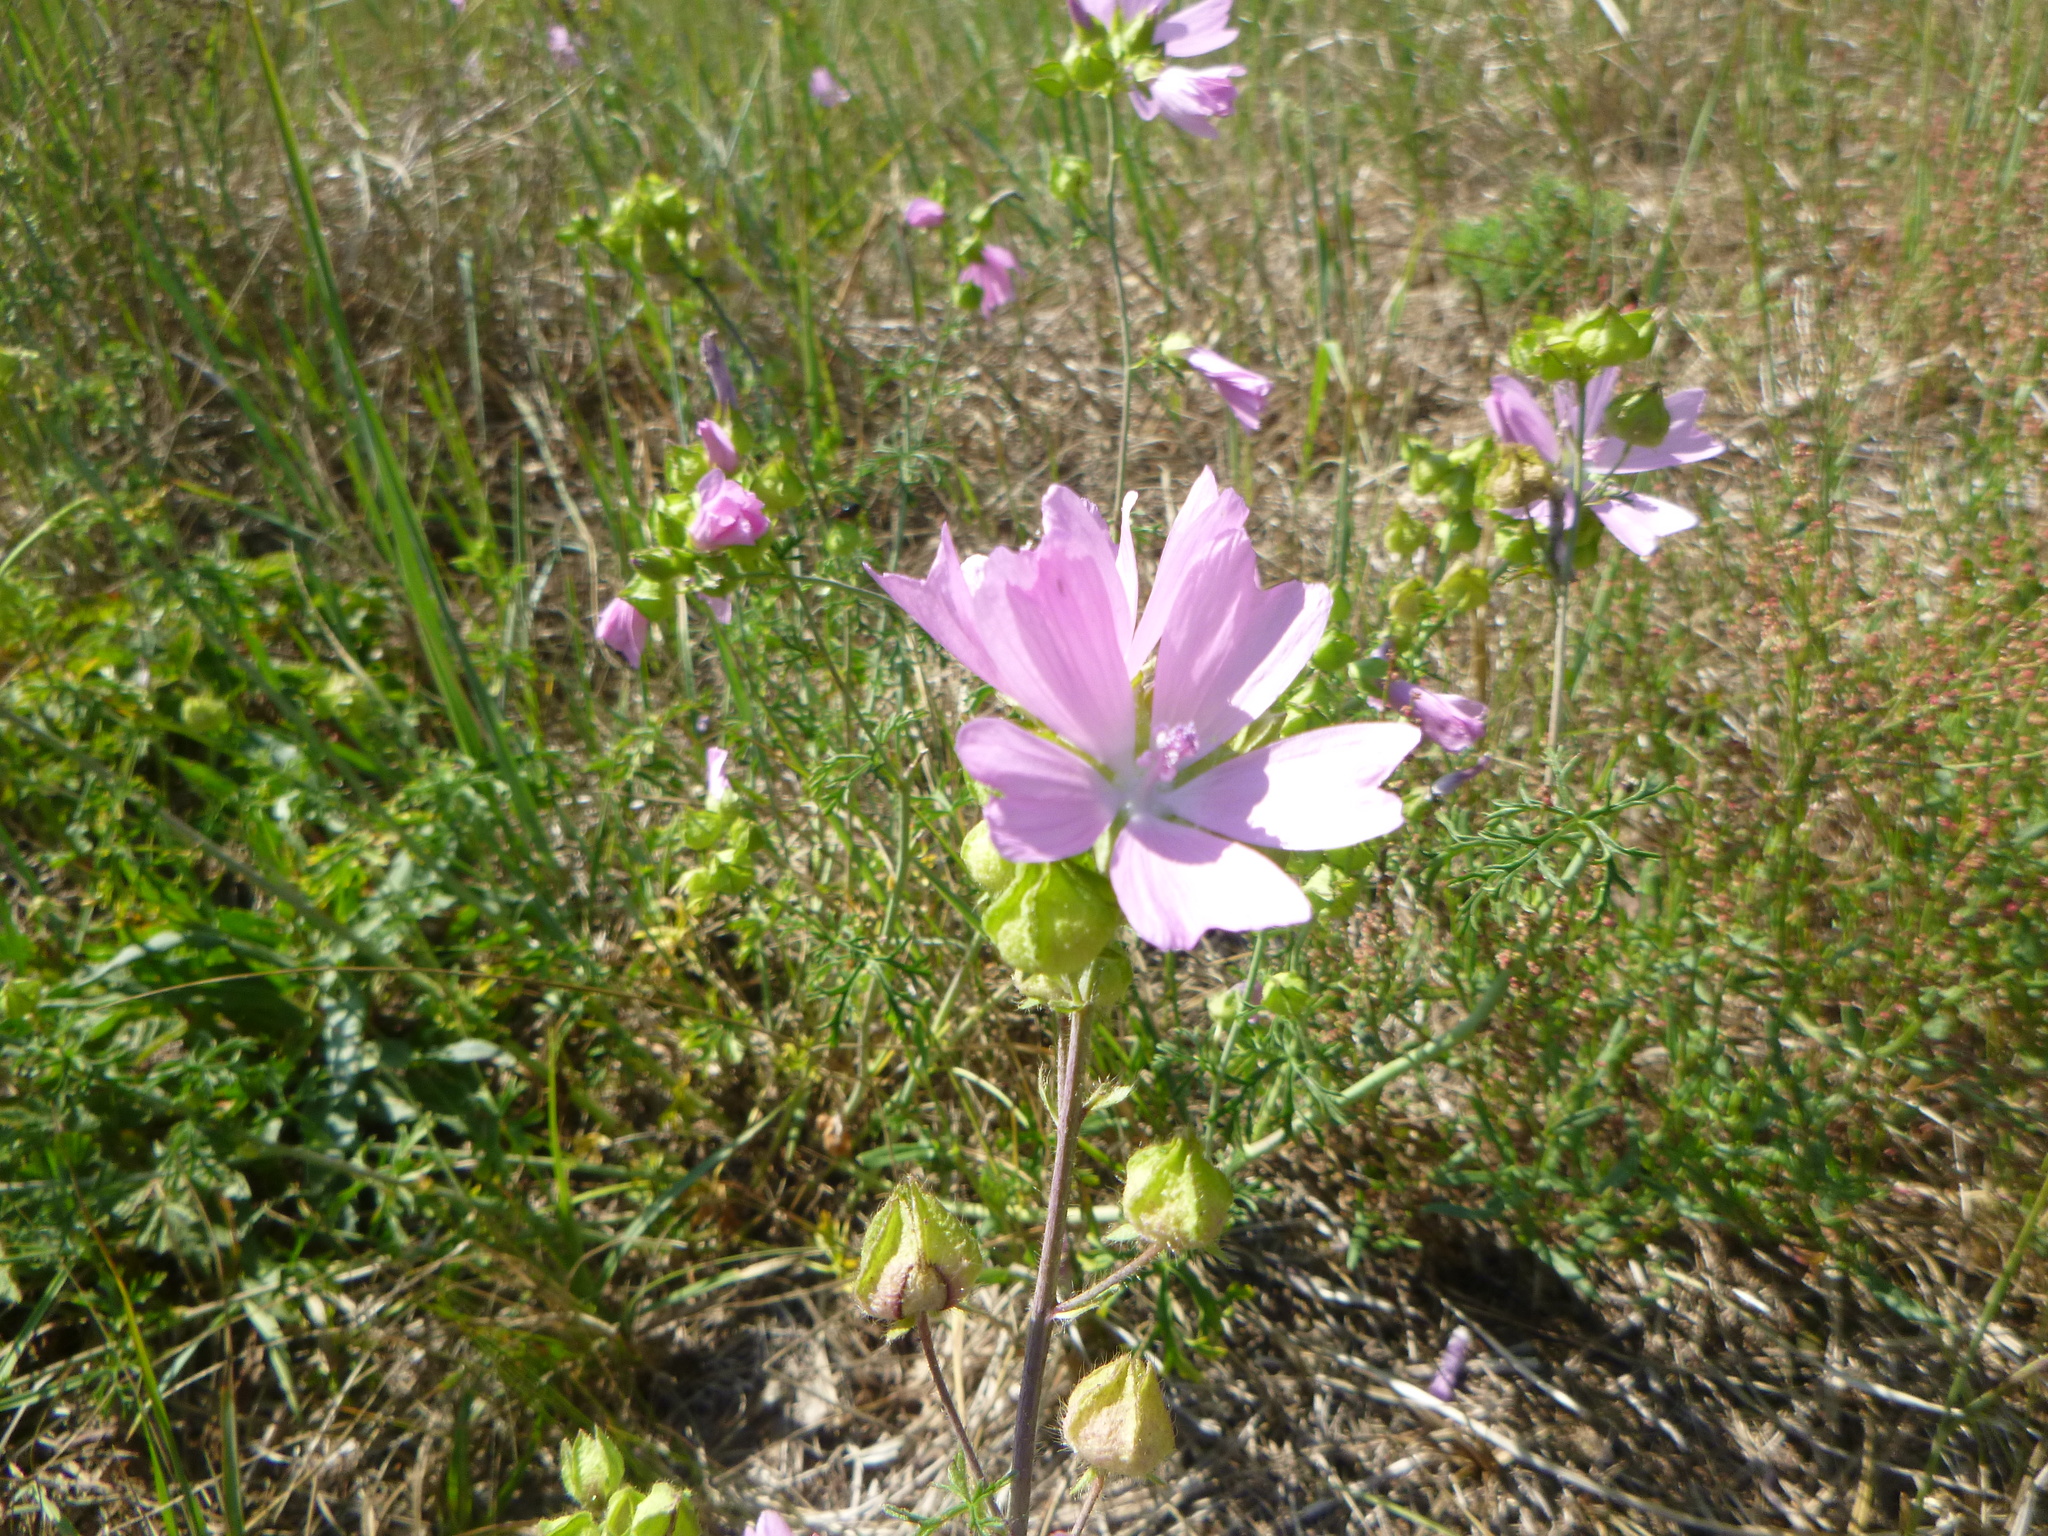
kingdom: Plantae
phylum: Tracheophyta
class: Magnoliopsida
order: Malvales
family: Malvaceae
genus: Malva
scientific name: Malva moschata
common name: Musk mallow
